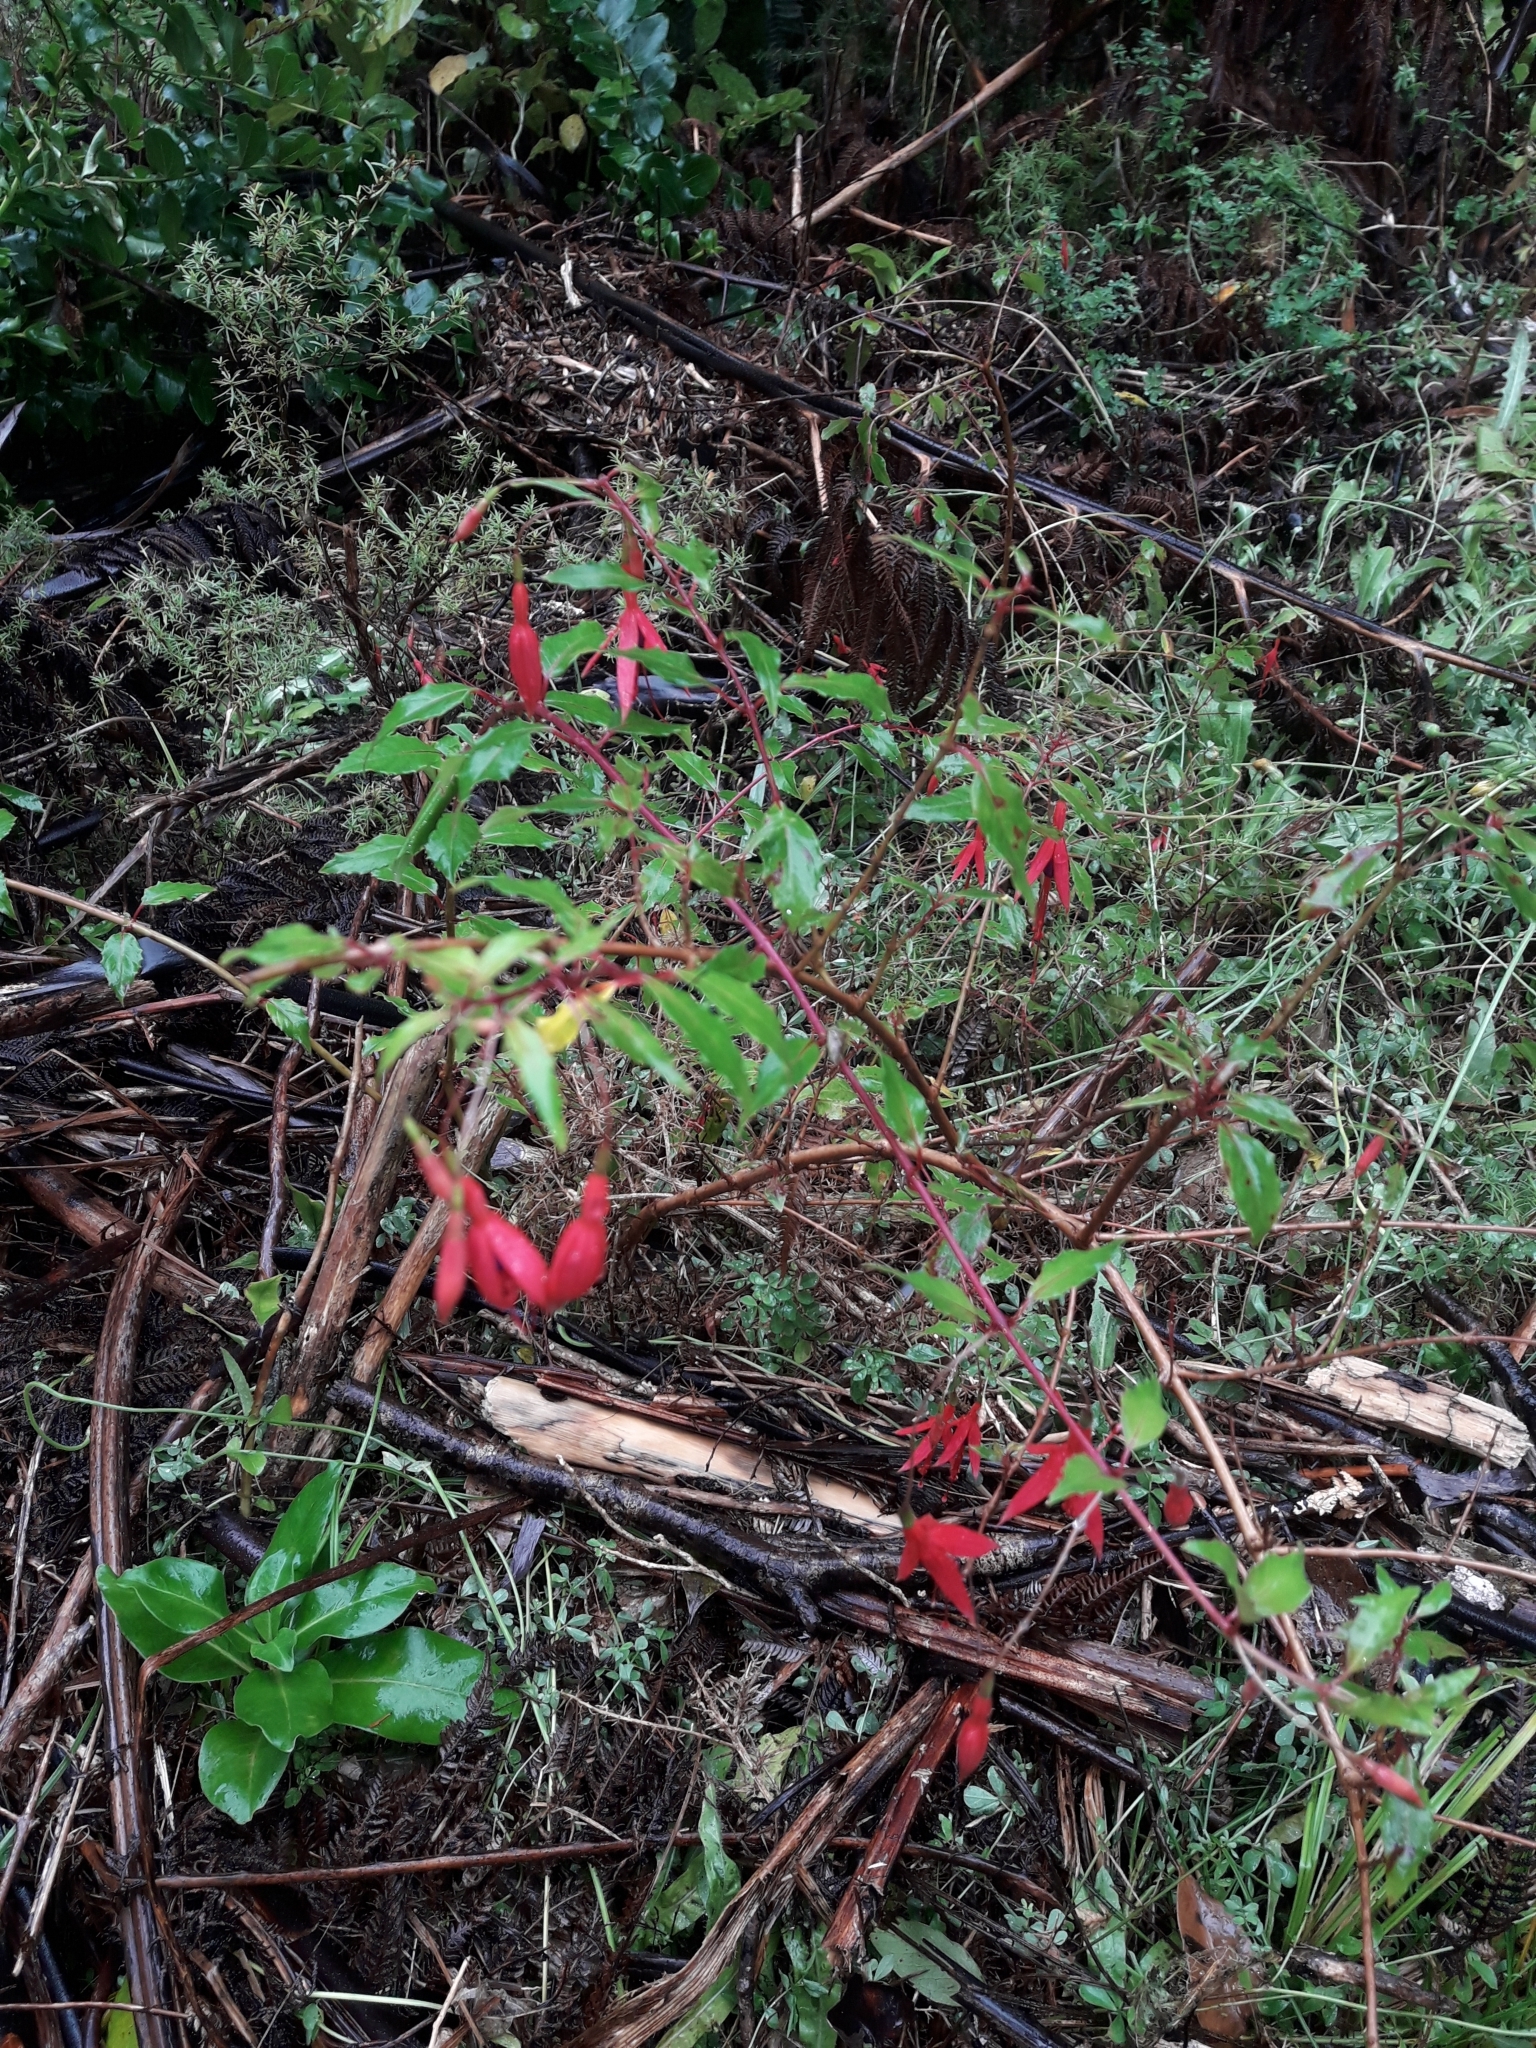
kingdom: Plantae
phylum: Tracheophyta
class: Magnoliopsida
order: Myrtales
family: Onagraceae
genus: Fuchsia
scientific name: Fuchsia magellanica
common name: Hardy fuchsia
